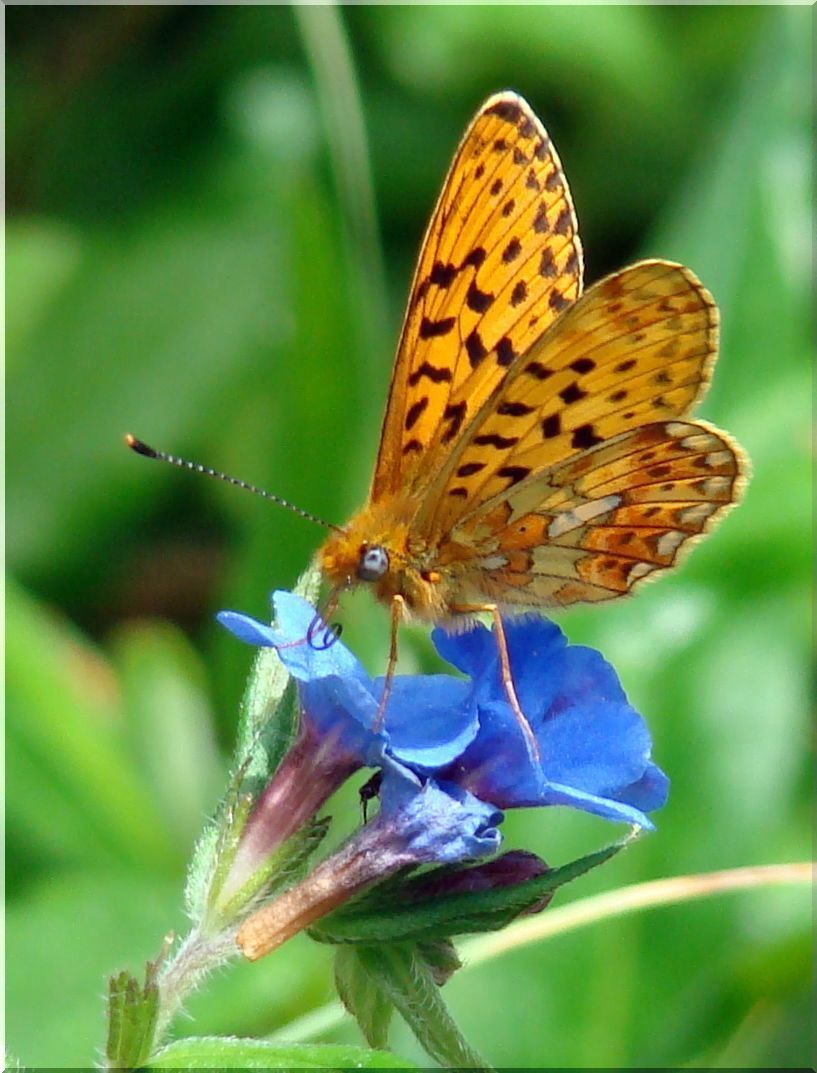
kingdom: Animalia
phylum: Arthropoda
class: Insecta
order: Lepidoptera
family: Nymphalidae
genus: Clossiana
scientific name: Clossiana euphrosyne
